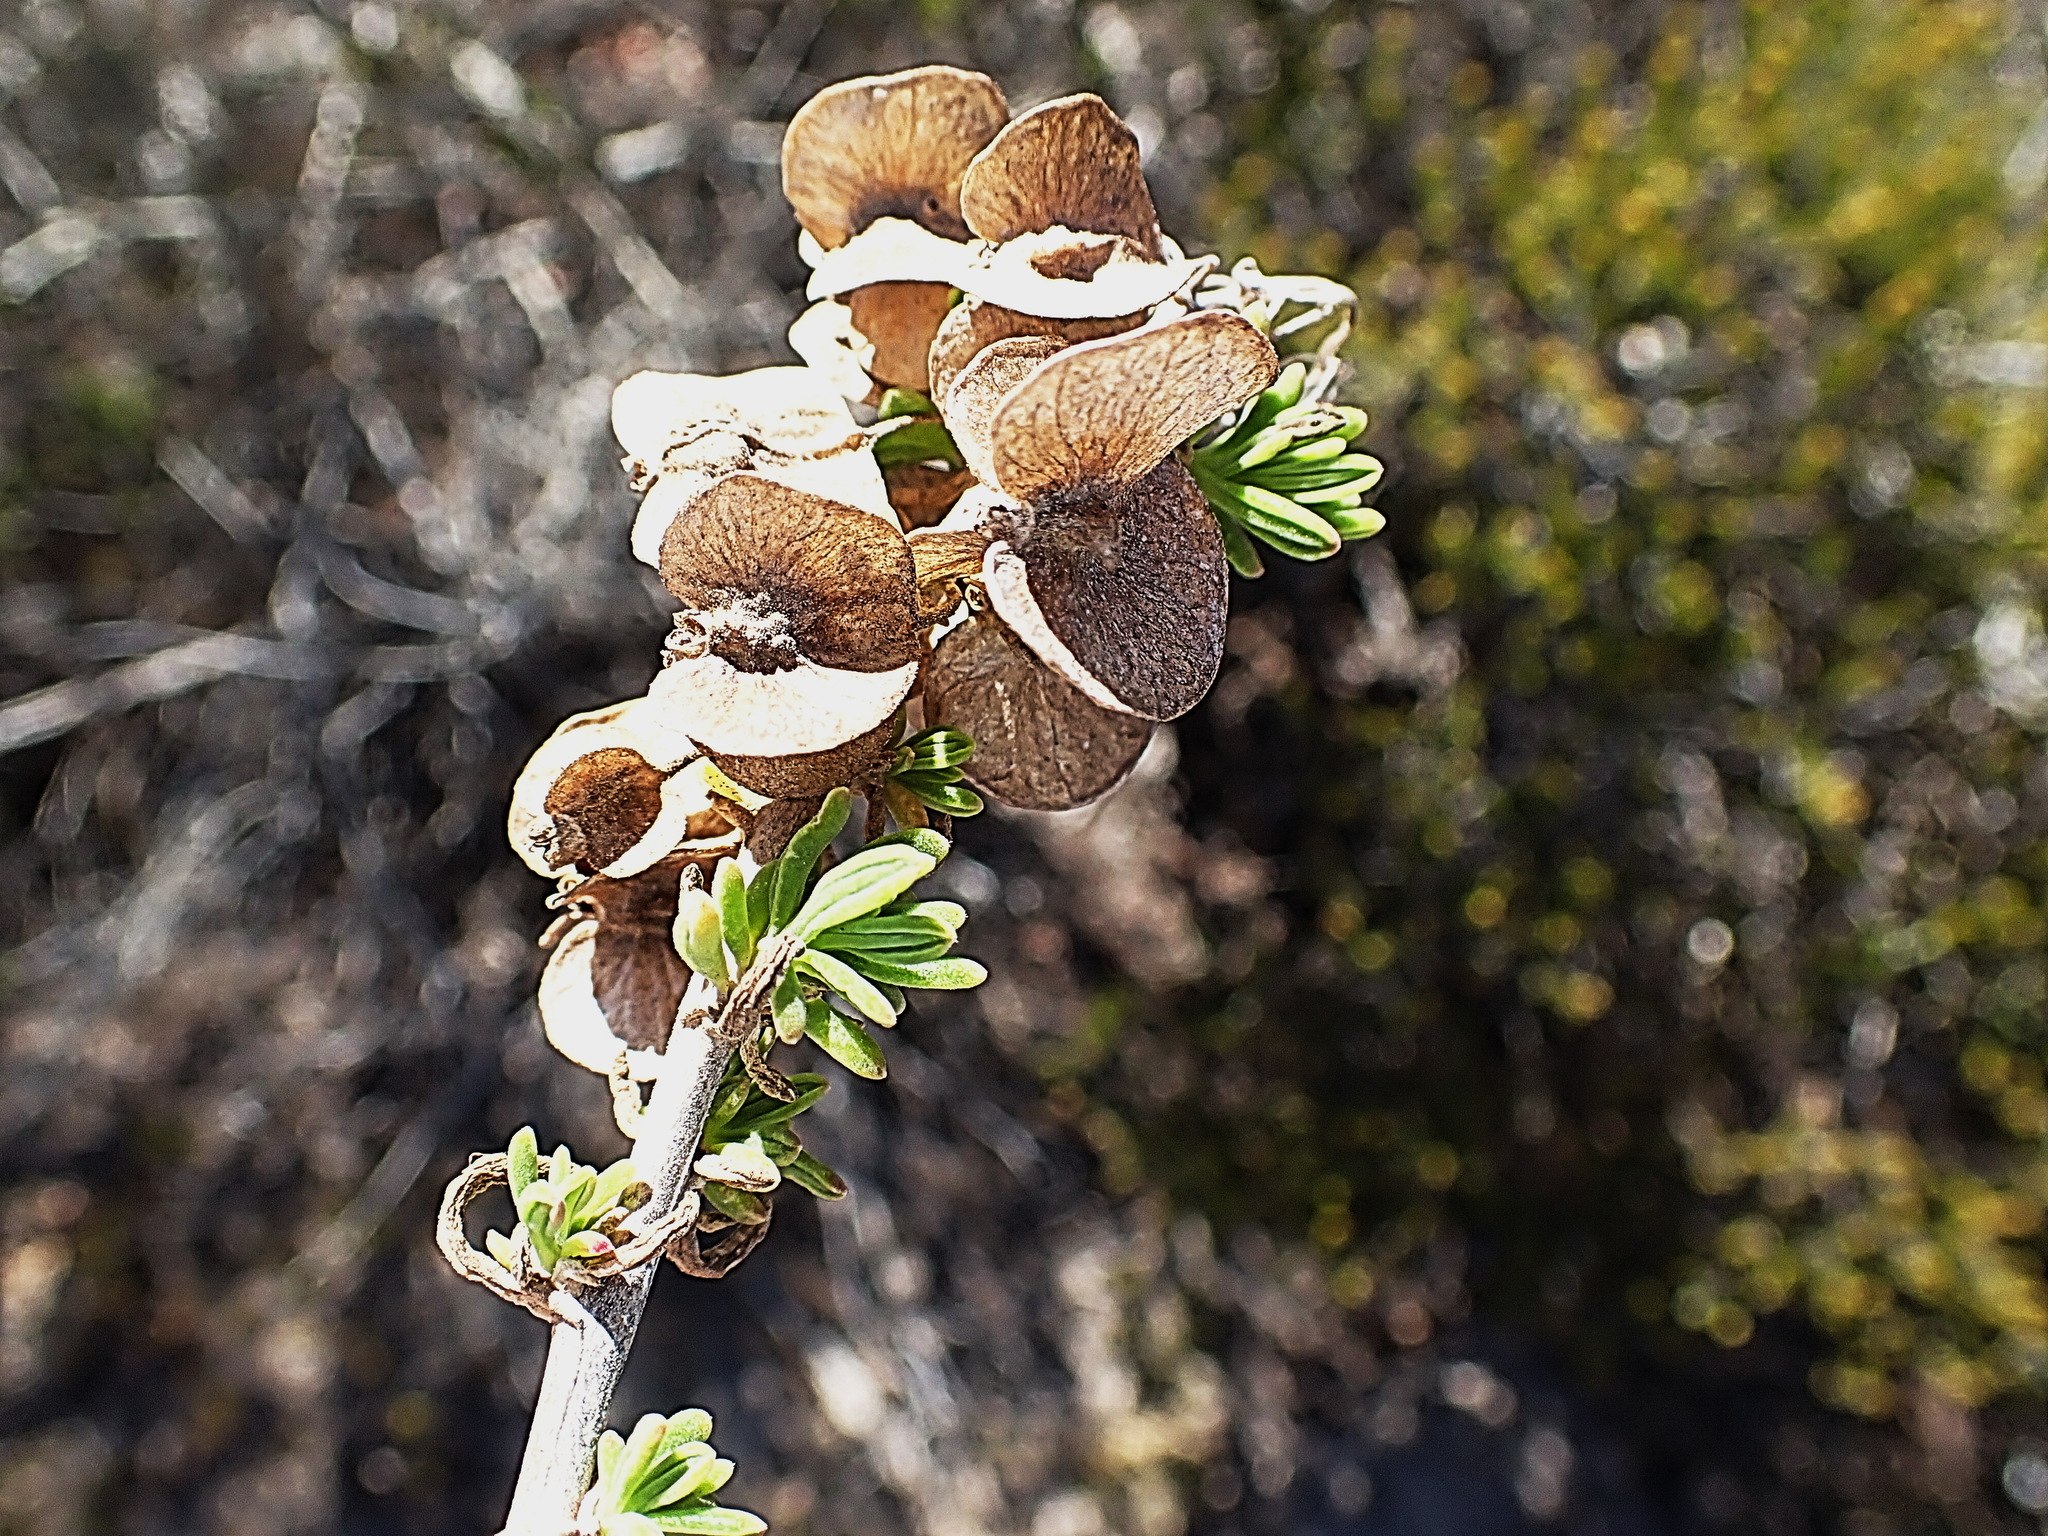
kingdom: Plantae
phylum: Tracheophyta
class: Magnoliopsida
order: Caryophyllales
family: Aizoaceae
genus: Tetragonia
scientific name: Tetragonia fruticosa
